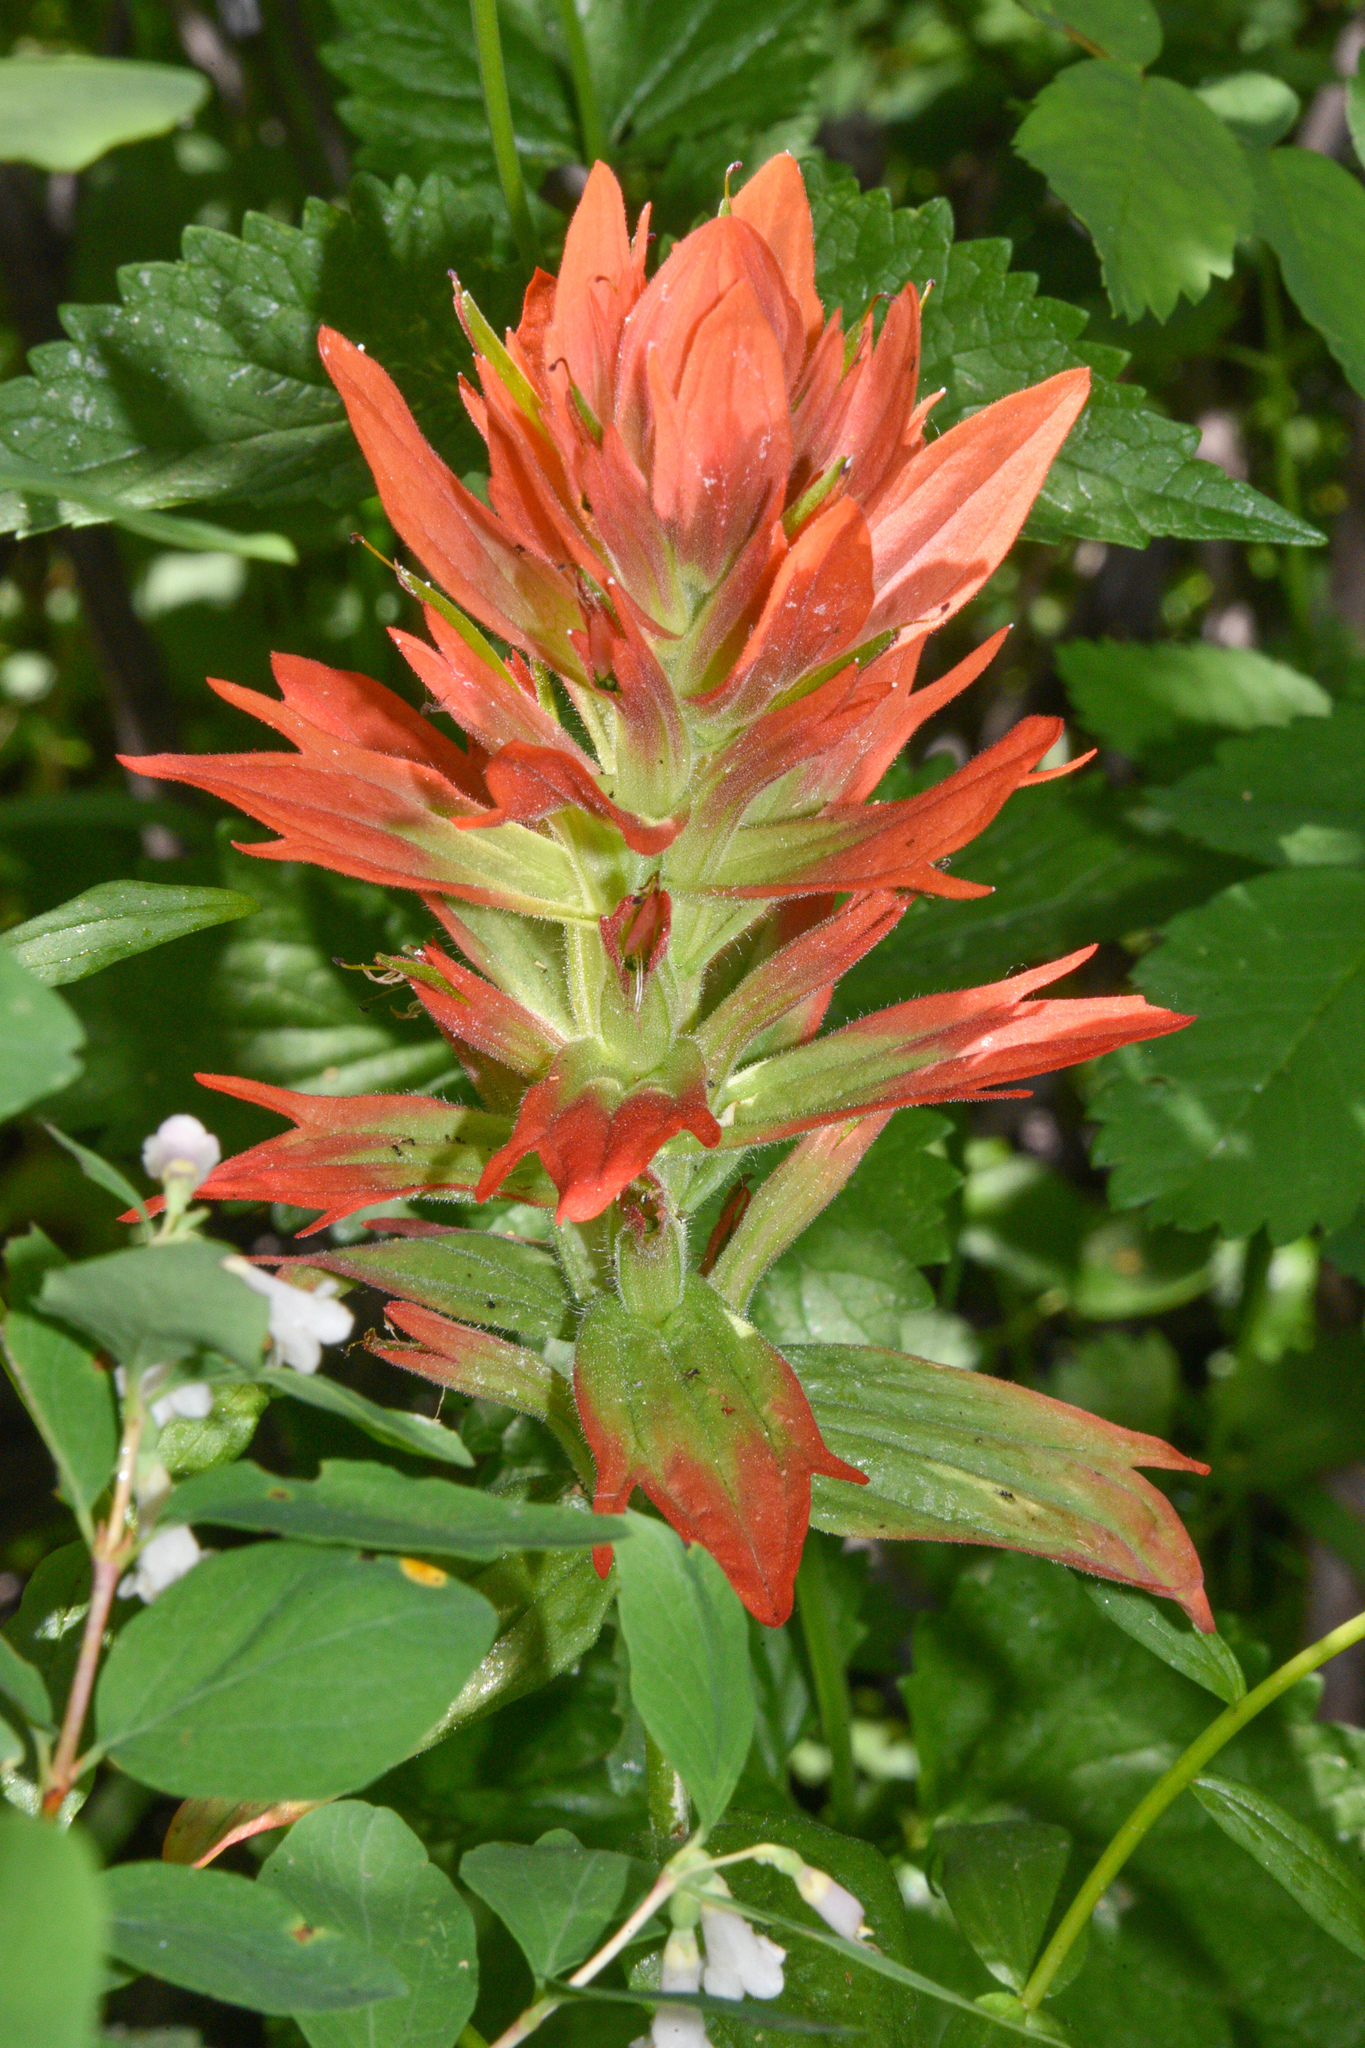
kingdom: Plantae
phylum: Tracheophyta
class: Magnoliopsida
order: Lamiales
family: Orobanchaceae
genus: Castilleja
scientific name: Castilleja miniata
